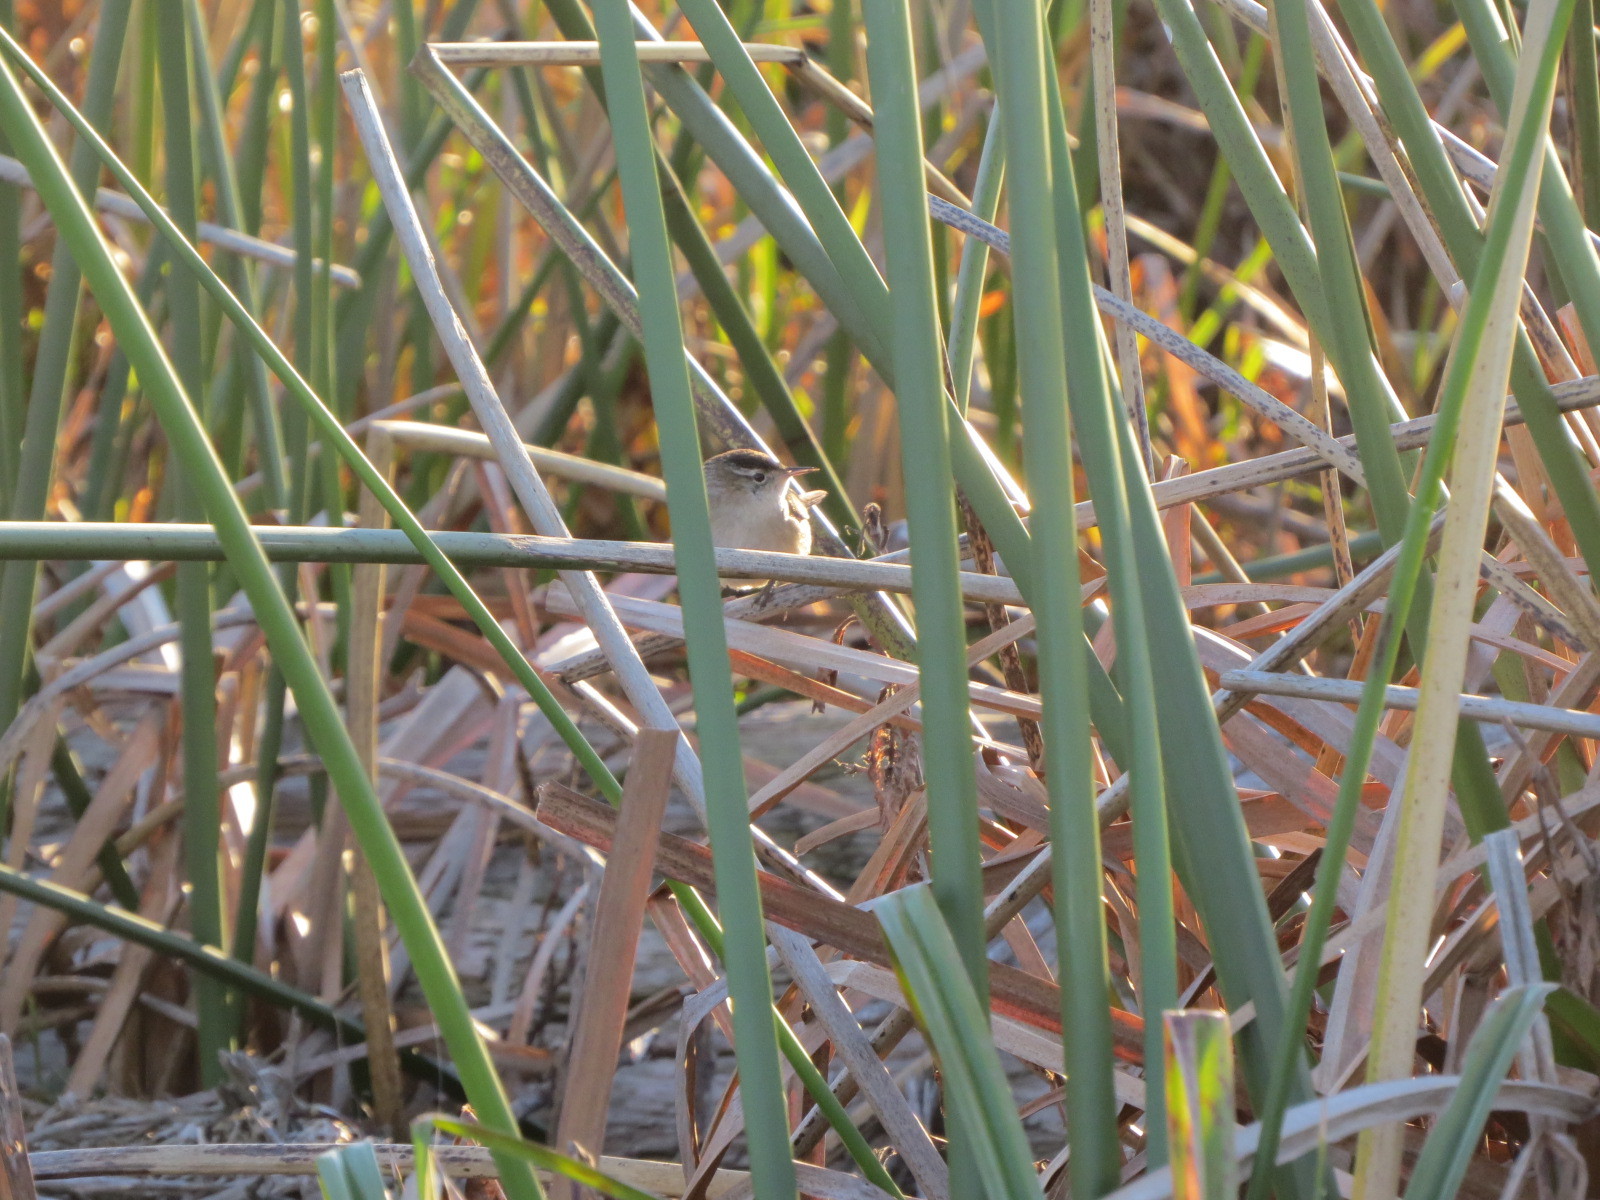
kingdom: Animalia
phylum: Chordata
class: Aves
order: Passeriformes
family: Troglodytidae
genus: Cistothorus
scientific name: Cistothorus palustris
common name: Marsh wren
